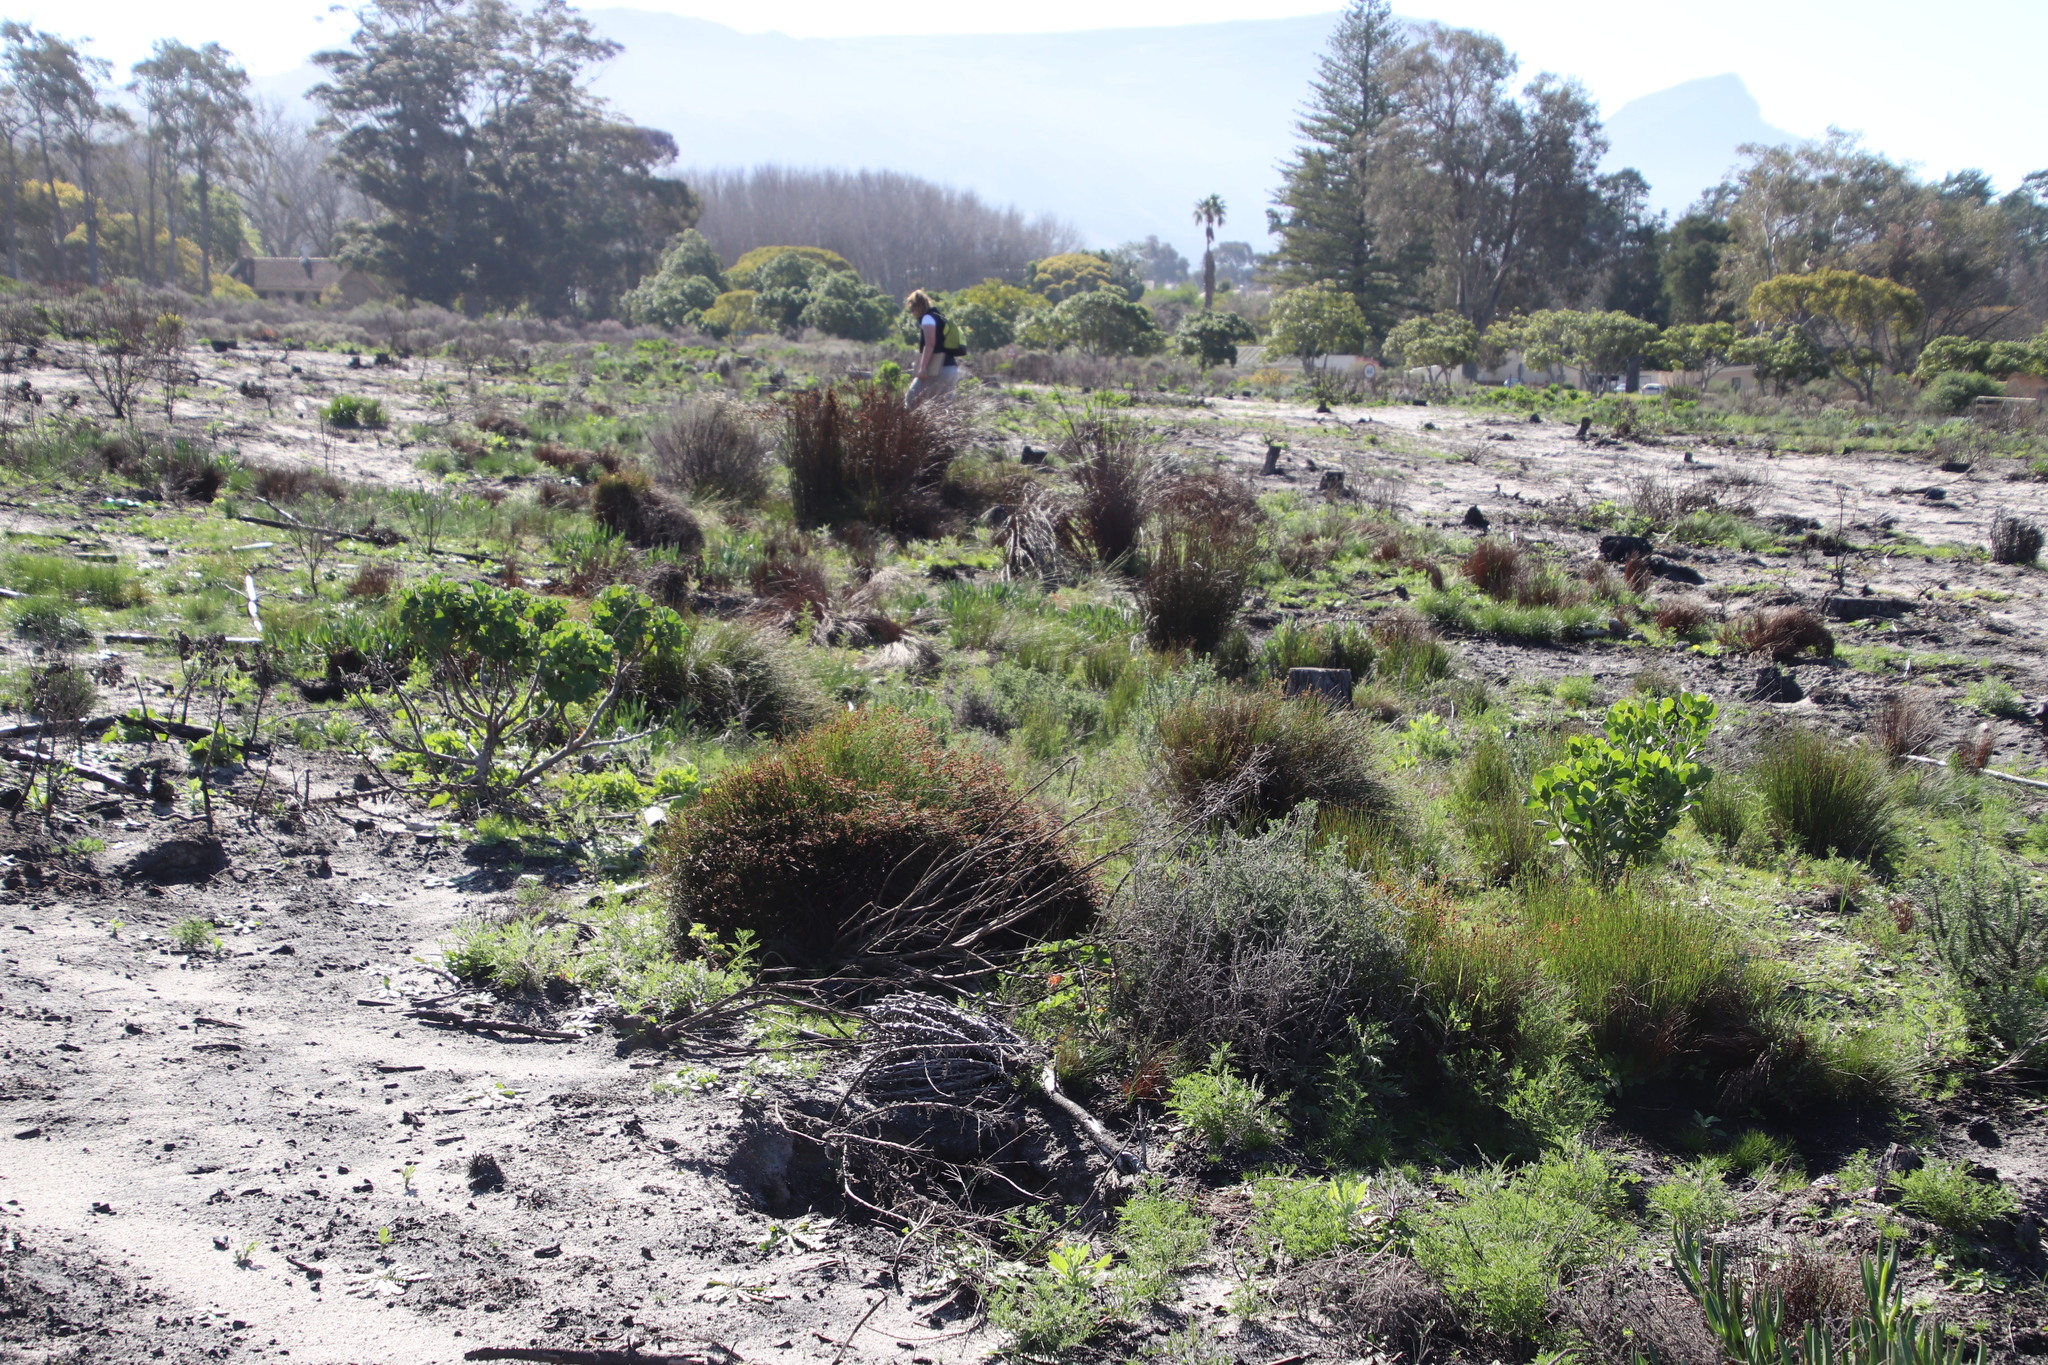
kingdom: Plantae
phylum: Tracheophyta
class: Liliopsida
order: Poales
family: Restionaceae
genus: Restio
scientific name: Restio capensis
